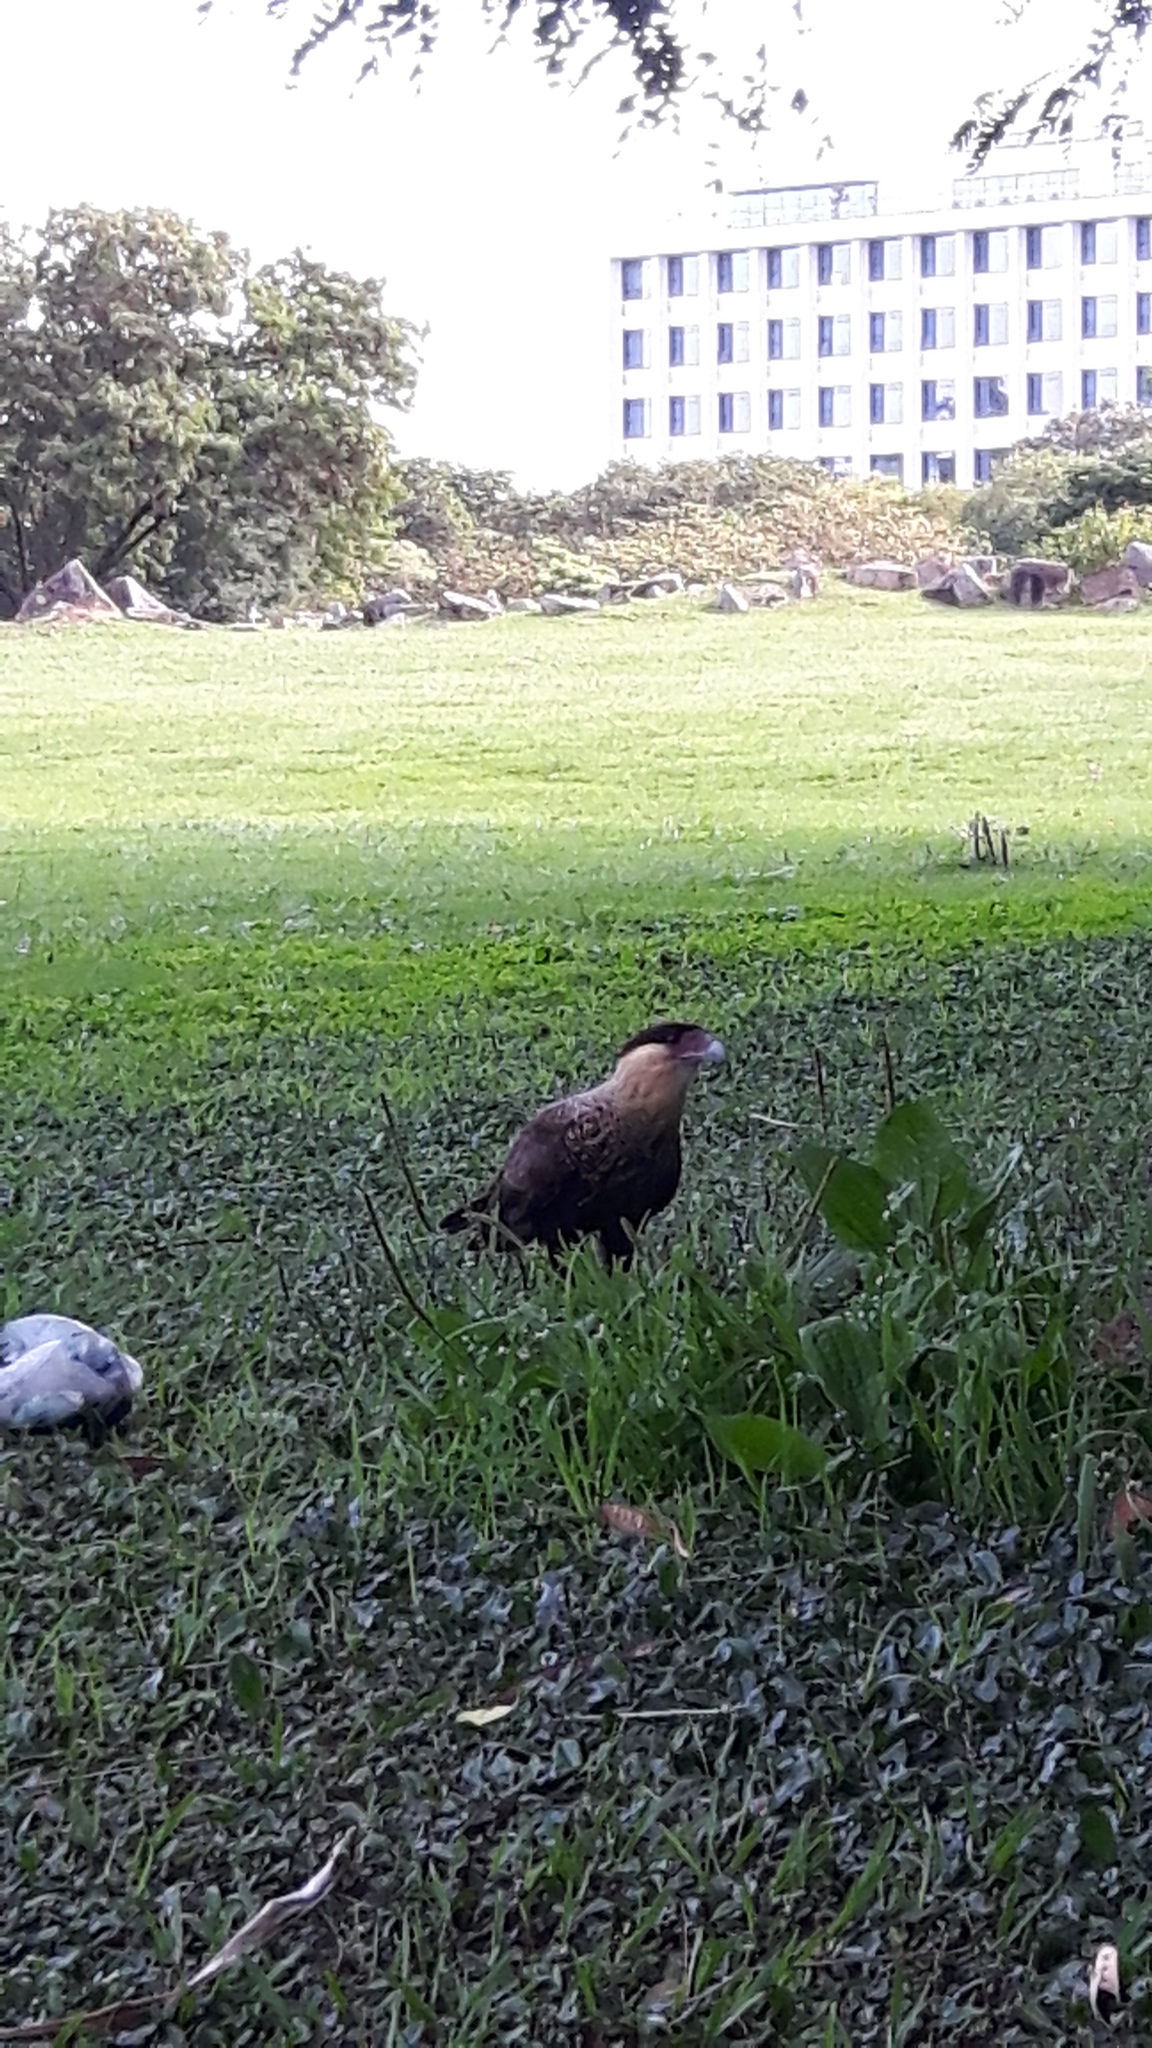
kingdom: Animalia
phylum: Chordata
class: Aves
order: Falconiformes
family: Falconidae
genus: Caracara
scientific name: Caracara plancus
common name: Southern caracara
